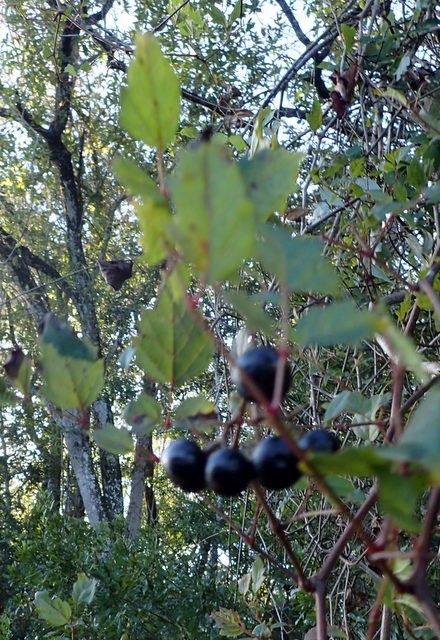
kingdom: Plantae
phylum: Tracheophyta
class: Magnoliopsida
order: Vitales
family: Vitaceae
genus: Nekemias
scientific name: Nekemias arborea
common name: Peppervine
